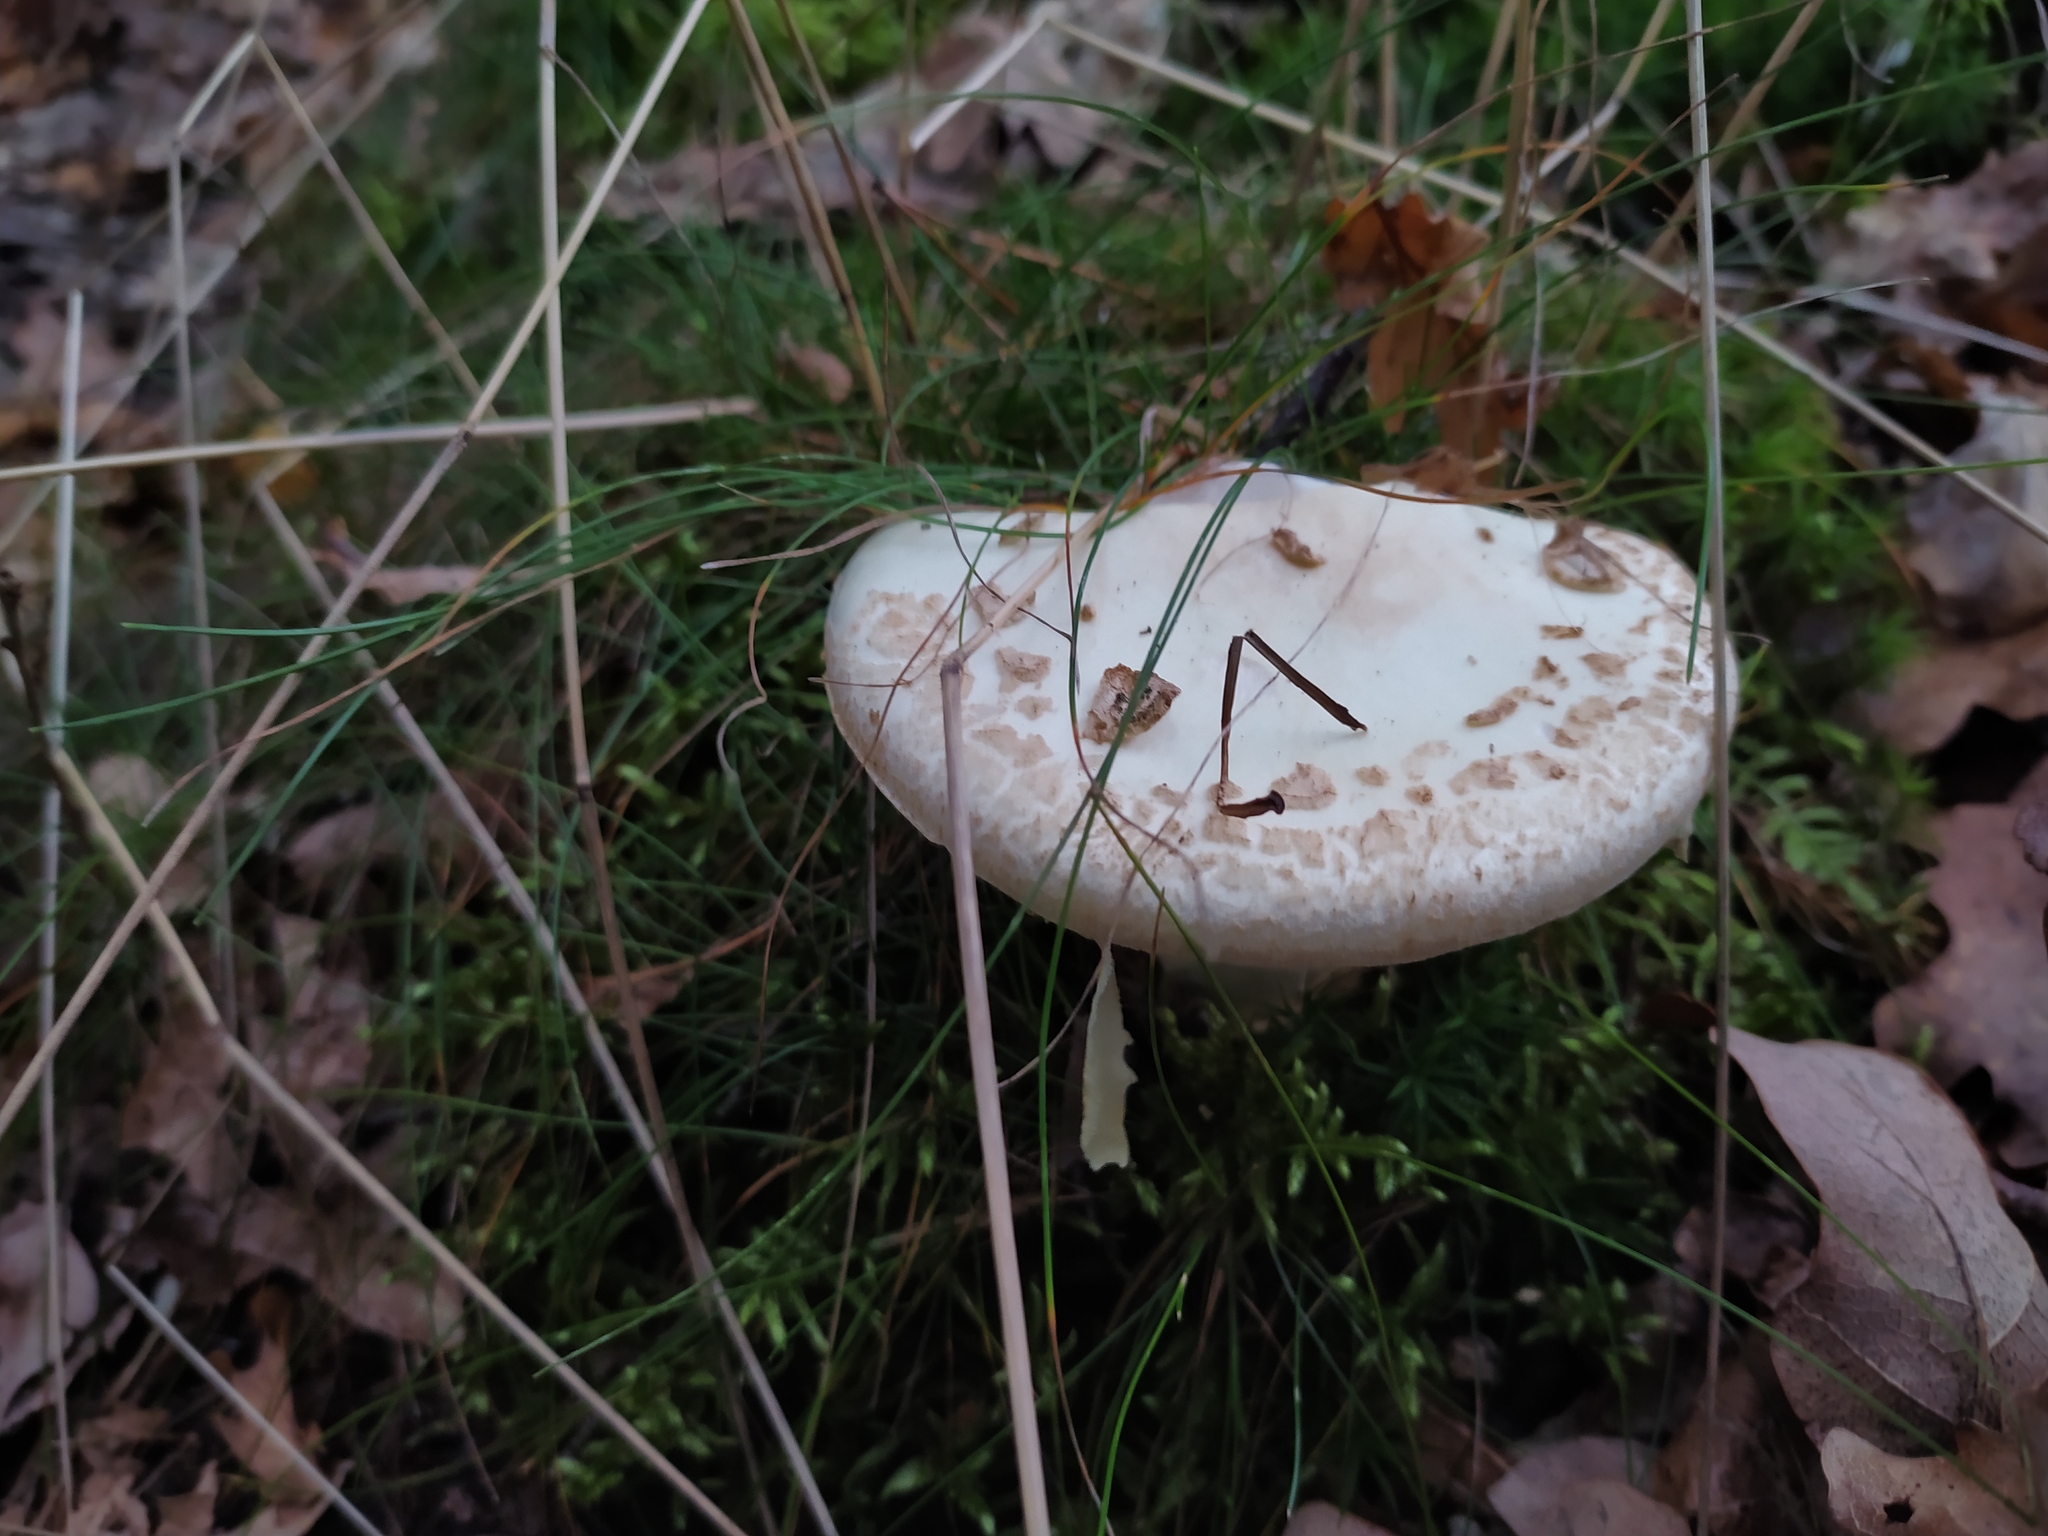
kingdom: Fungi
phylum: Basidiomycota
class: Agaricomycetes
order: Agaricales
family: Amanitaceae
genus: Amanita
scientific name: Amanita citrina
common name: False death-cap
